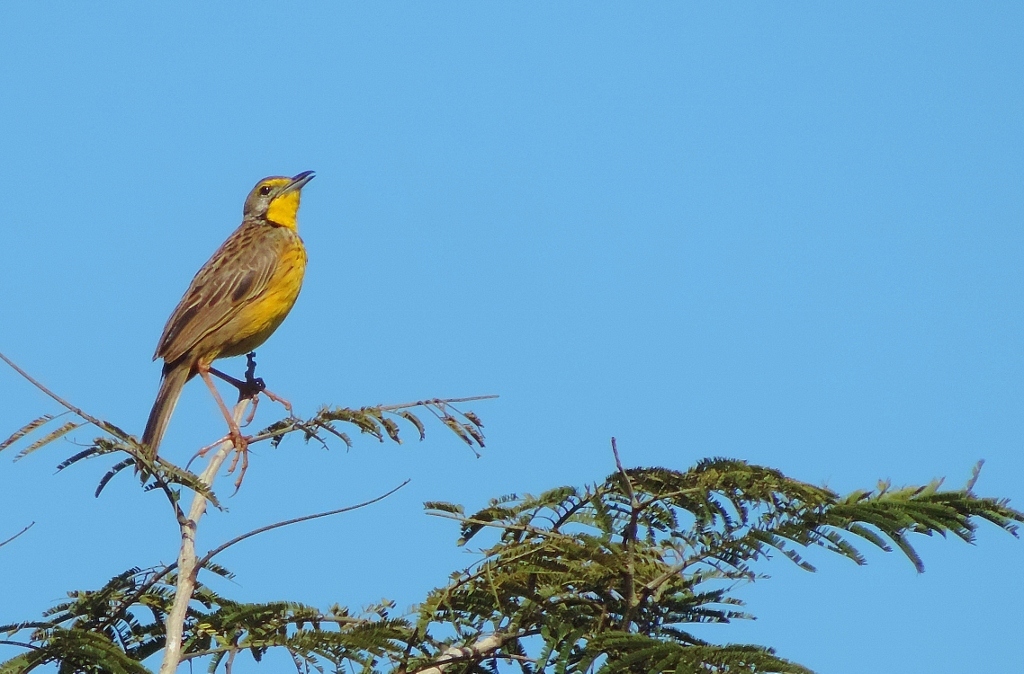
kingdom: Animalia
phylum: Chordata
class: Aves
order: Passeriformes
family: Motacillidae
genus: Macronyx
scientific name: Macronyx croceus
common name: Yellow-throated longclaw
